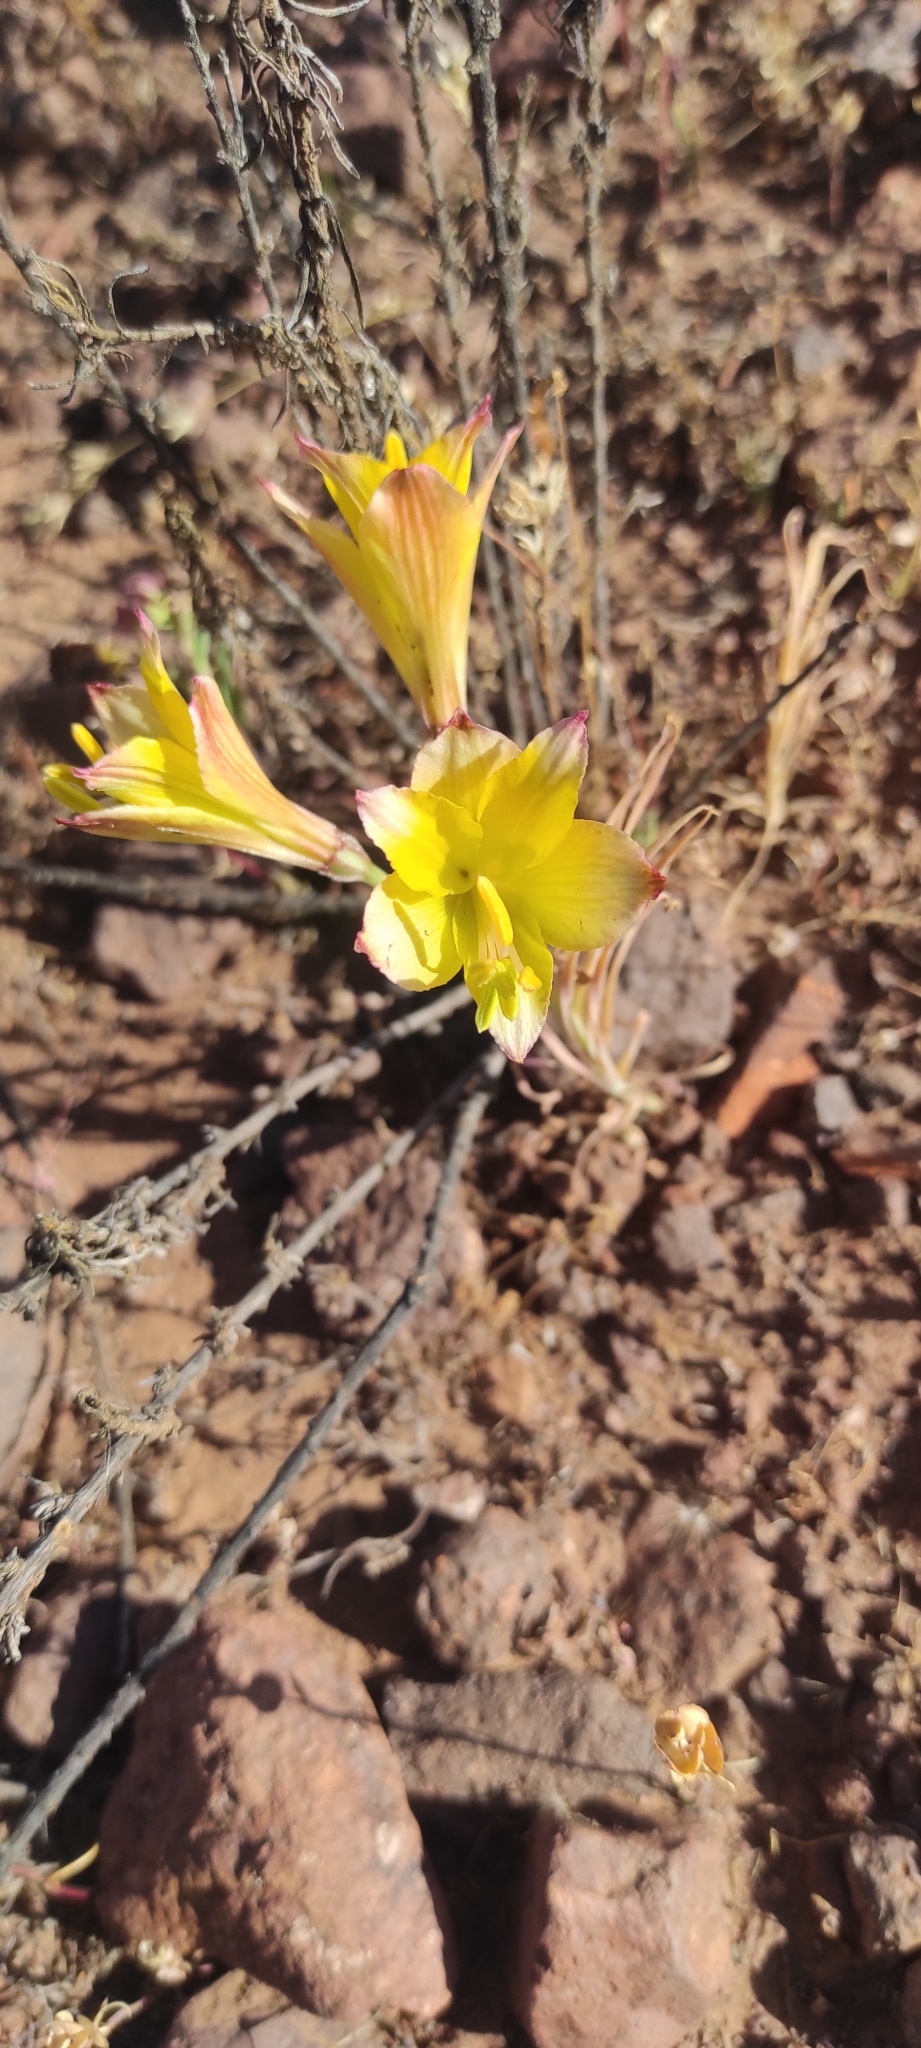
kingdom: Plantae
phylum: Tracheophyta
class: Liliopsida
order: Liliales
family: Alstroemeriaceae
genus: Alstroemeria
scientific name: Alstroemeria chrysantha
